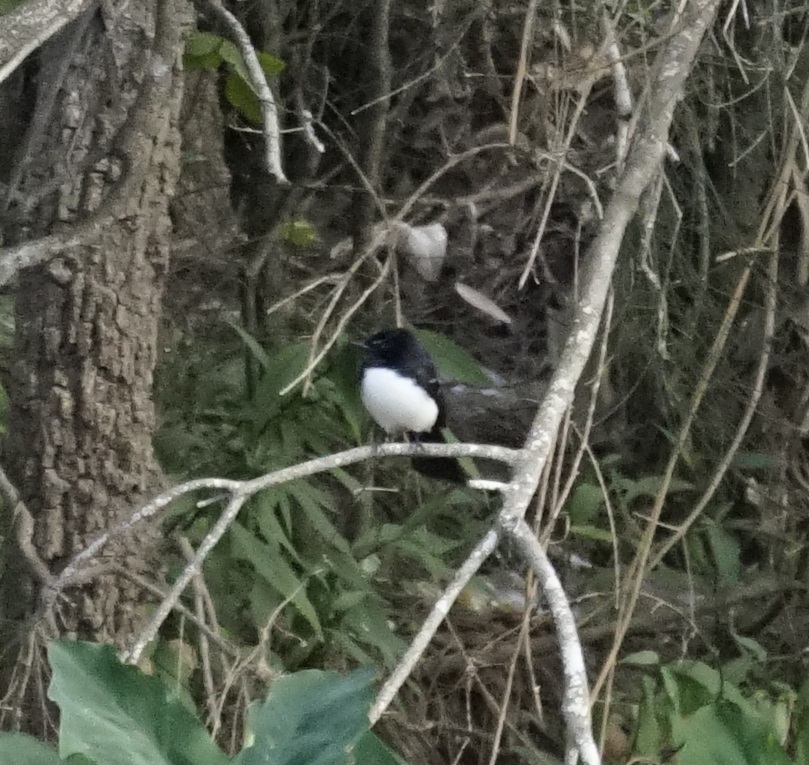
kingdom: Animalia
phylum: Chordata
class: Aves
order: Passeriformes
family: Rhipiduridae
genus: Rhipidura
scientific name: Rhipidura leucophrys
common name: Willie wagtail
